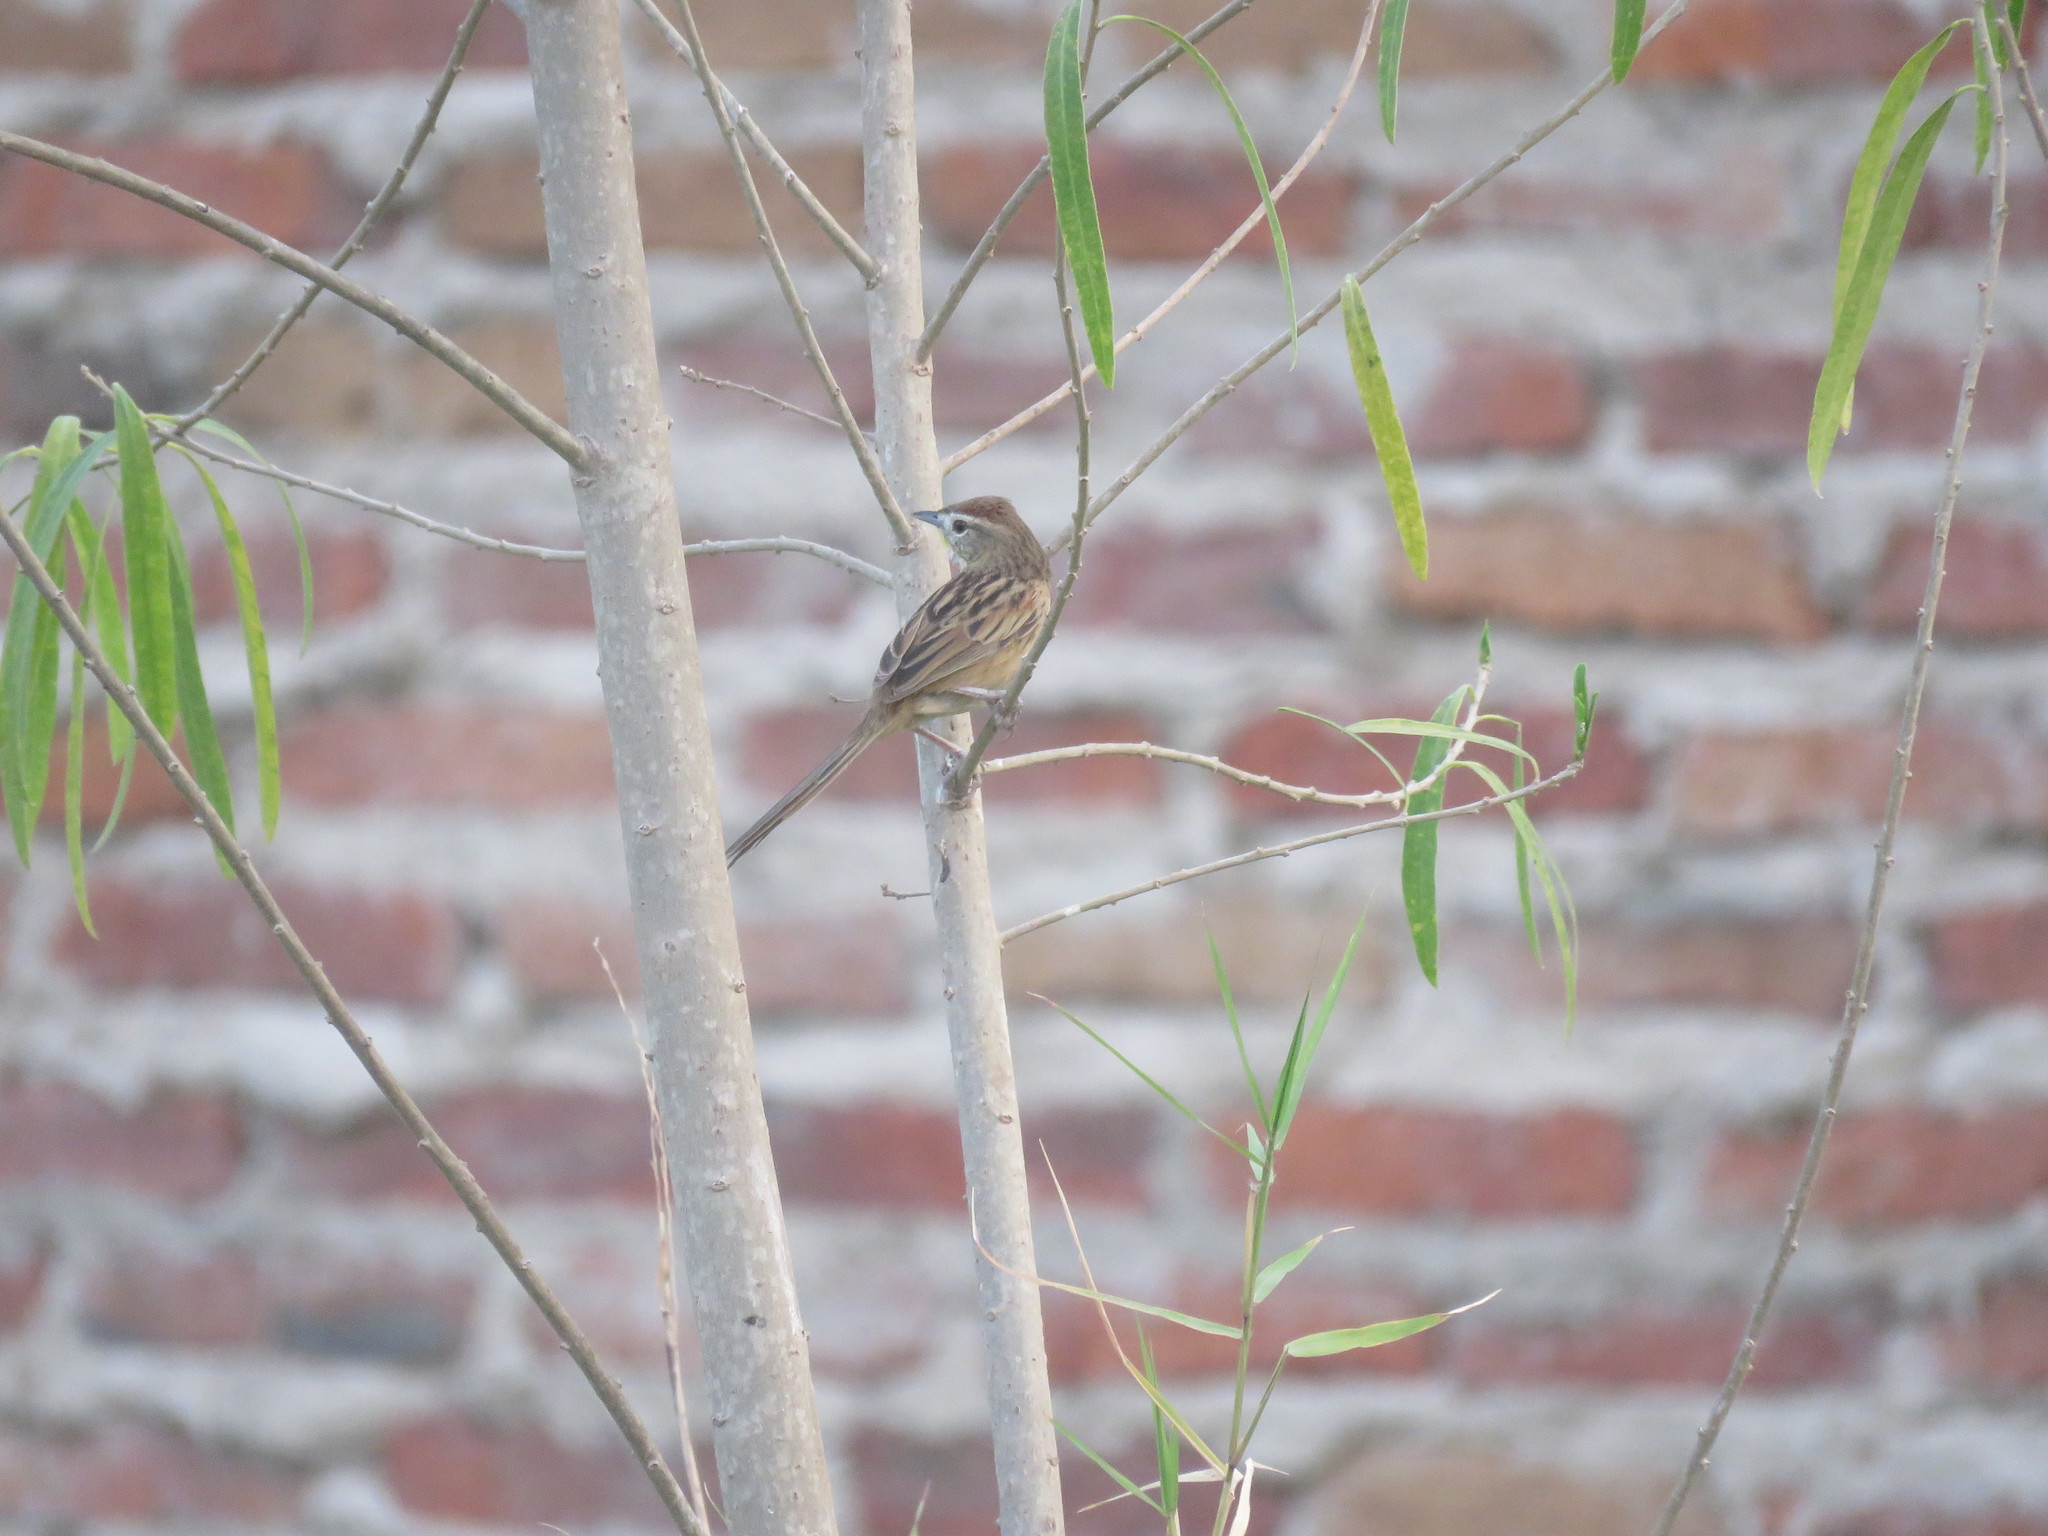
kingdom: Animalia
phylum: Chordata
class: Aves
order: Passeriformes
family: Furnariidae
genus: Schoeniophylax
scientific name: Schoeniophylax phryganophilus
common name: Chotoy spinetail
